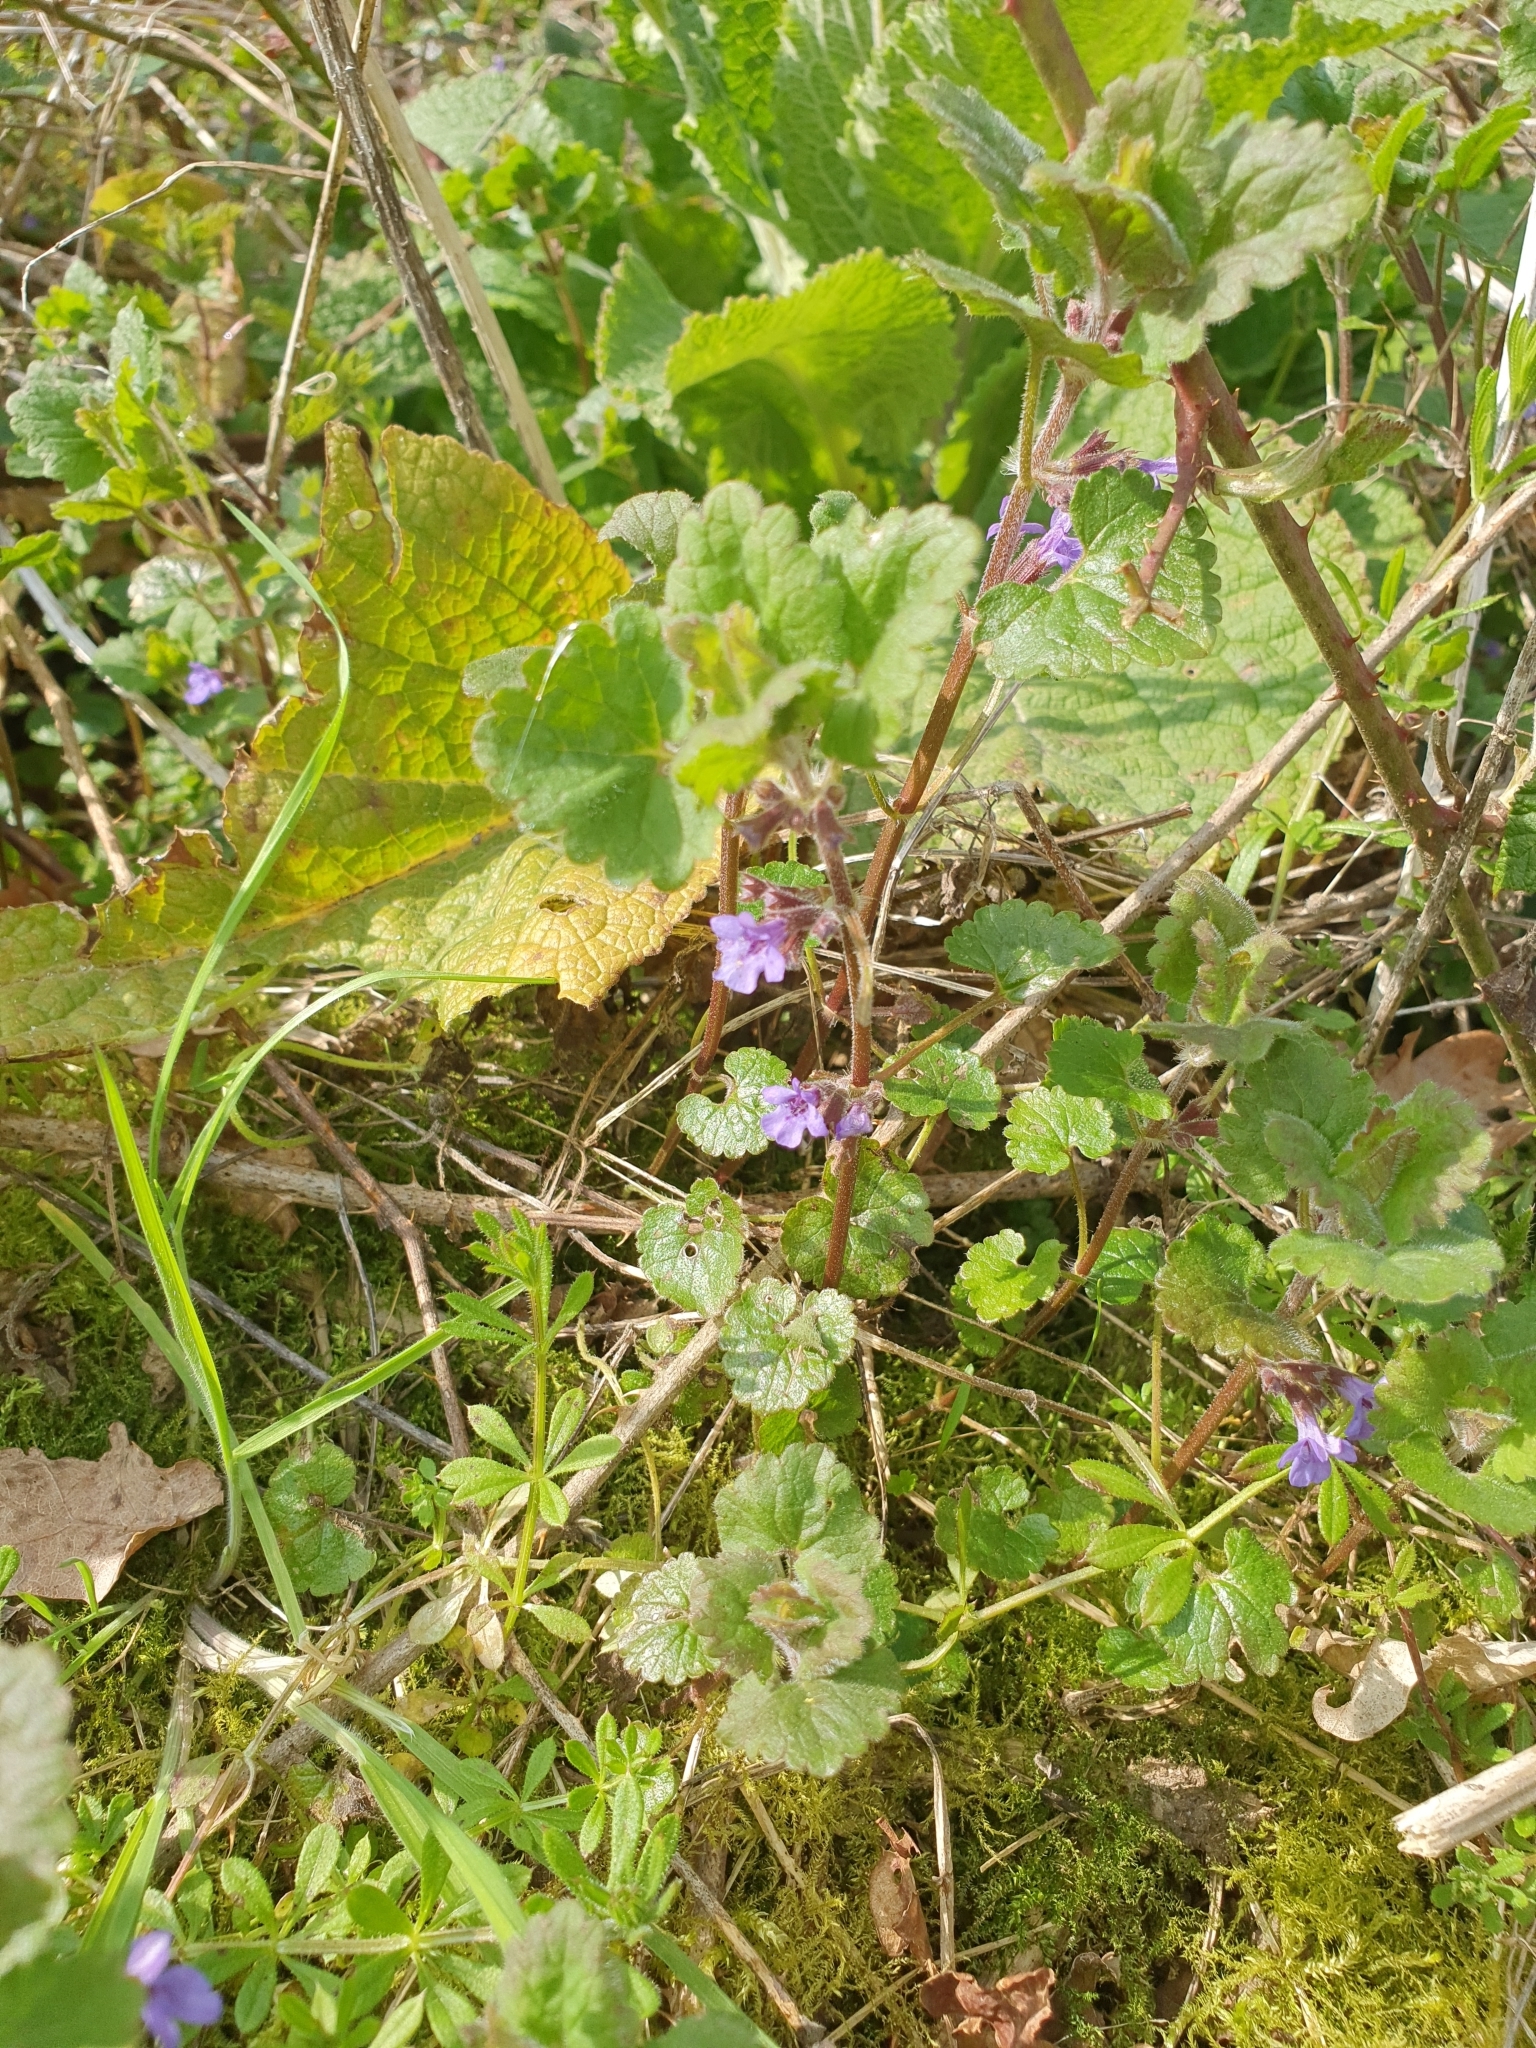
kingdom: Plantae
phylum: Tracheophyta
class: Magnoliopsida
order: Lamiales
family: Lamiaceae
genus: Glechoma
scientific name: Glechoma hederacea
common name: Ground ivy
